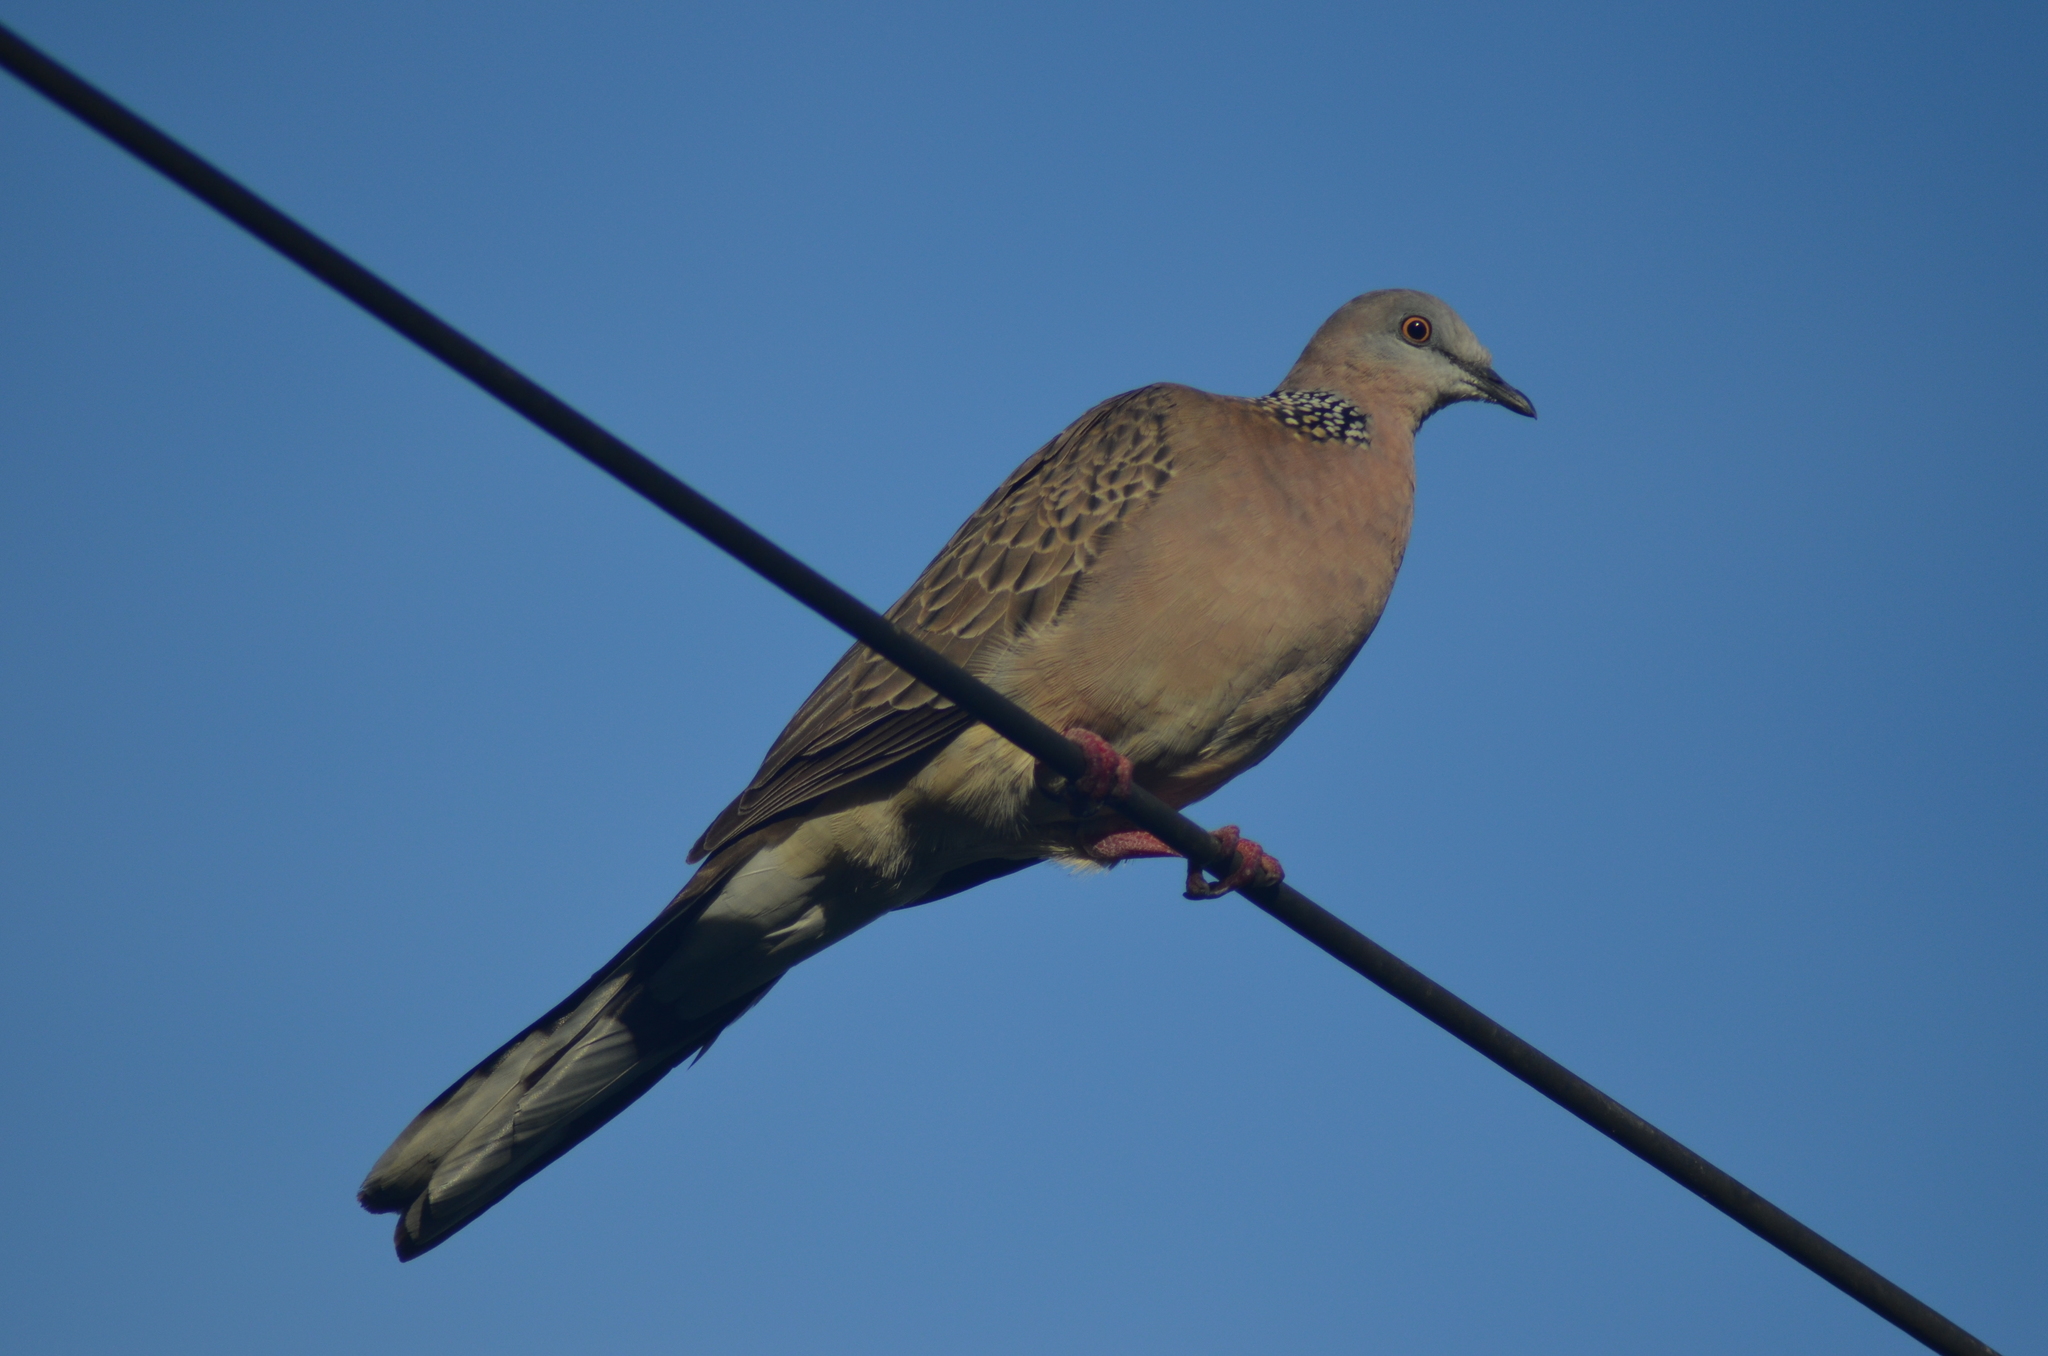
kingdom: Animalia
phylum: Chordata
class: Aves
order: Columbiformes
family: Columbidae
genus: Spilopelia
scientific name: Spilopelia chinensis
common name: Spotted dove
